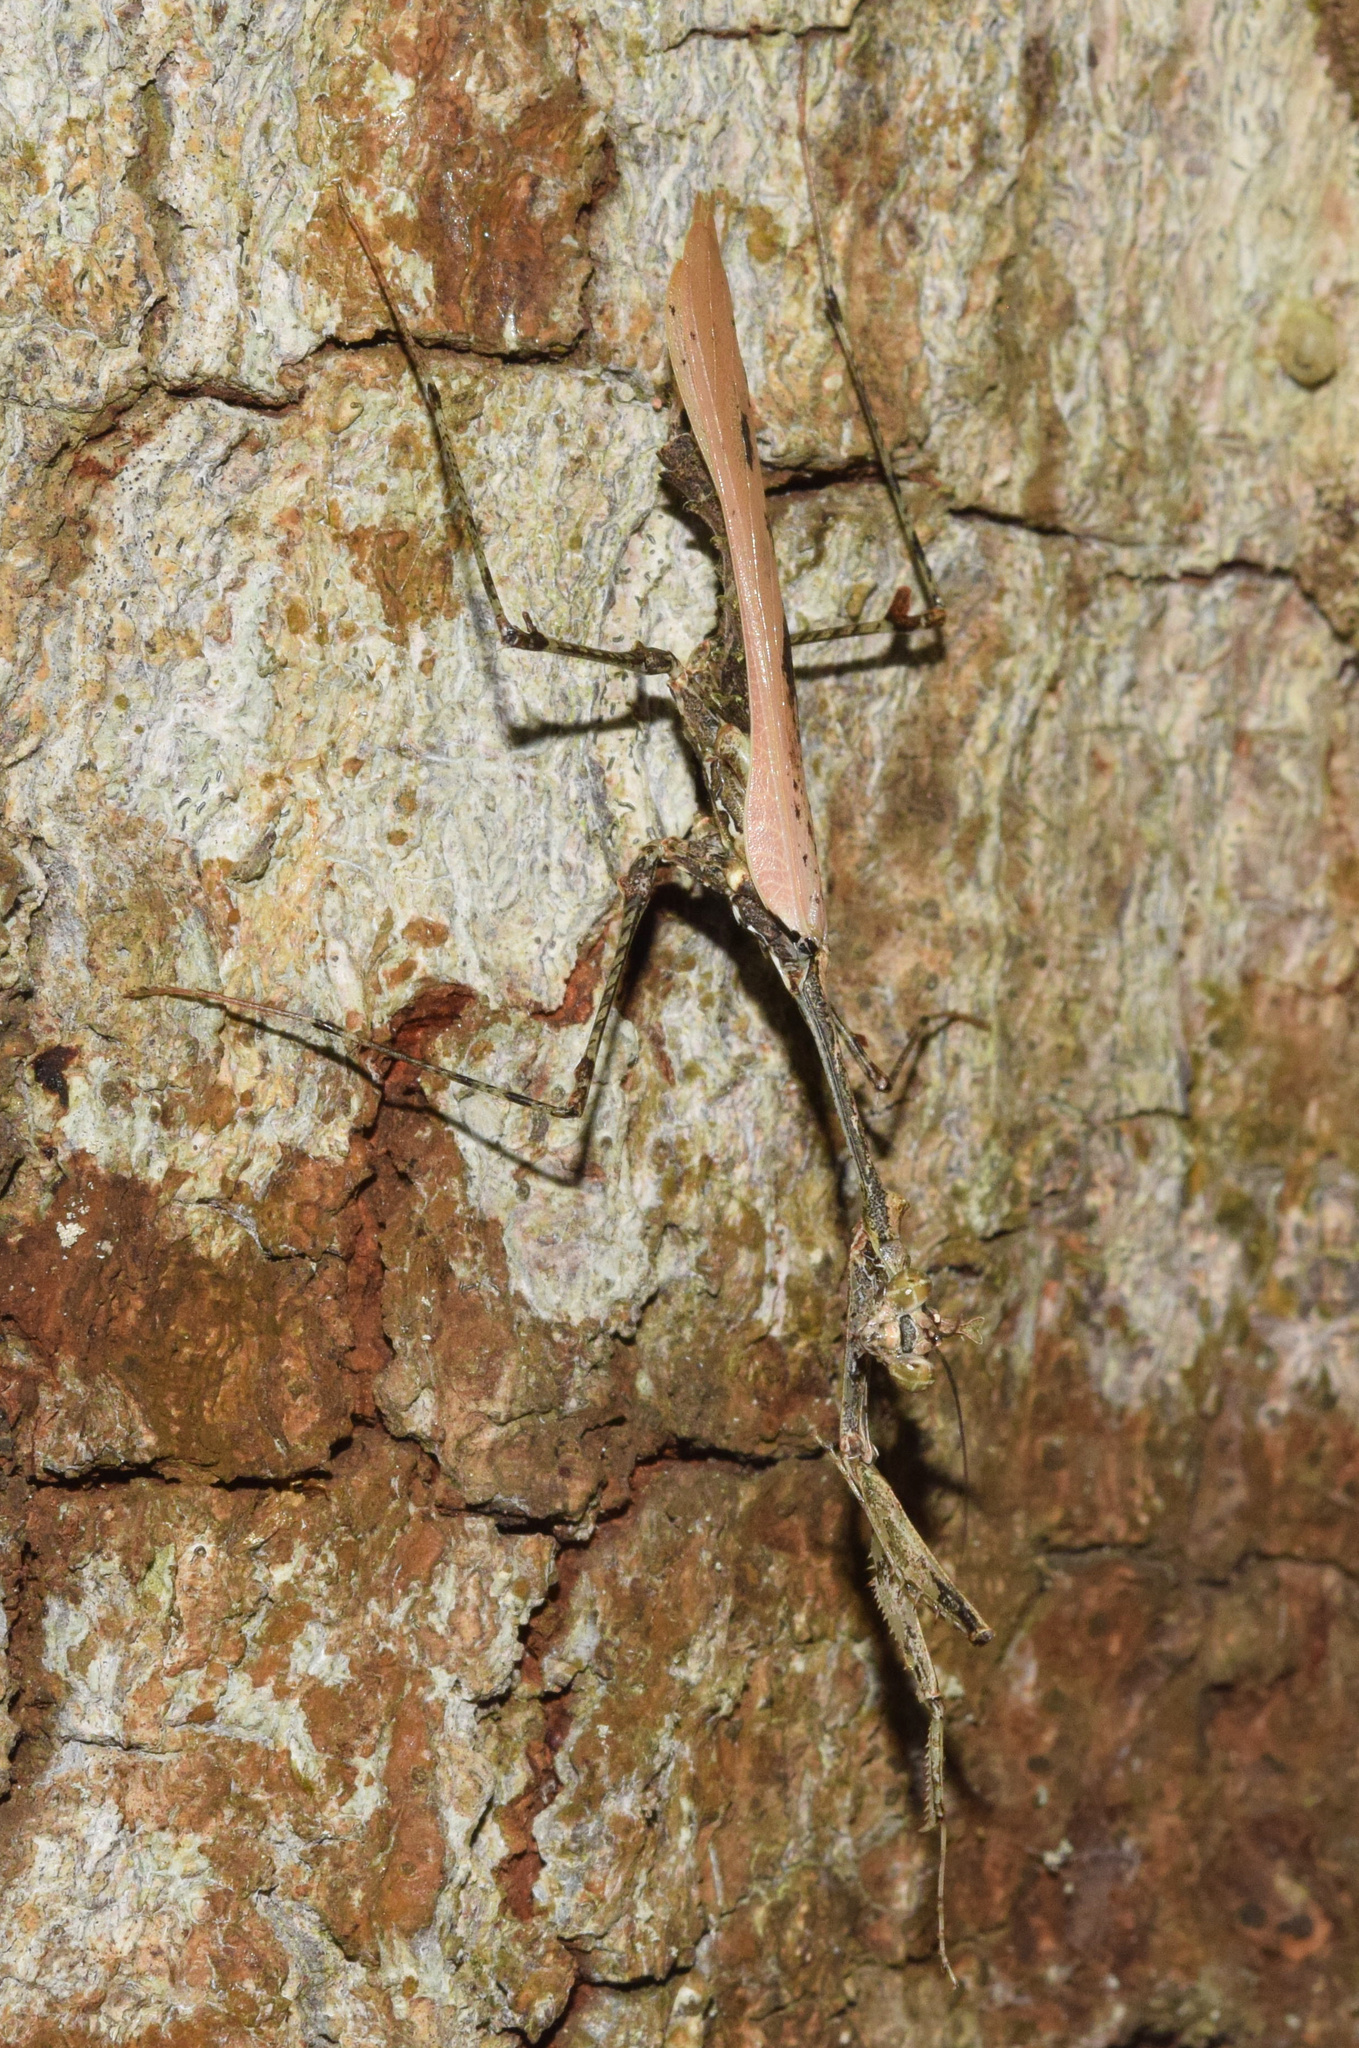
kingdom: Animalia
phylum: Arthropoda
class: Insecta
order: Mantodea
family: Hymenopodidae
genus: Sibylla
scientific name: Sibylla pretiosa
